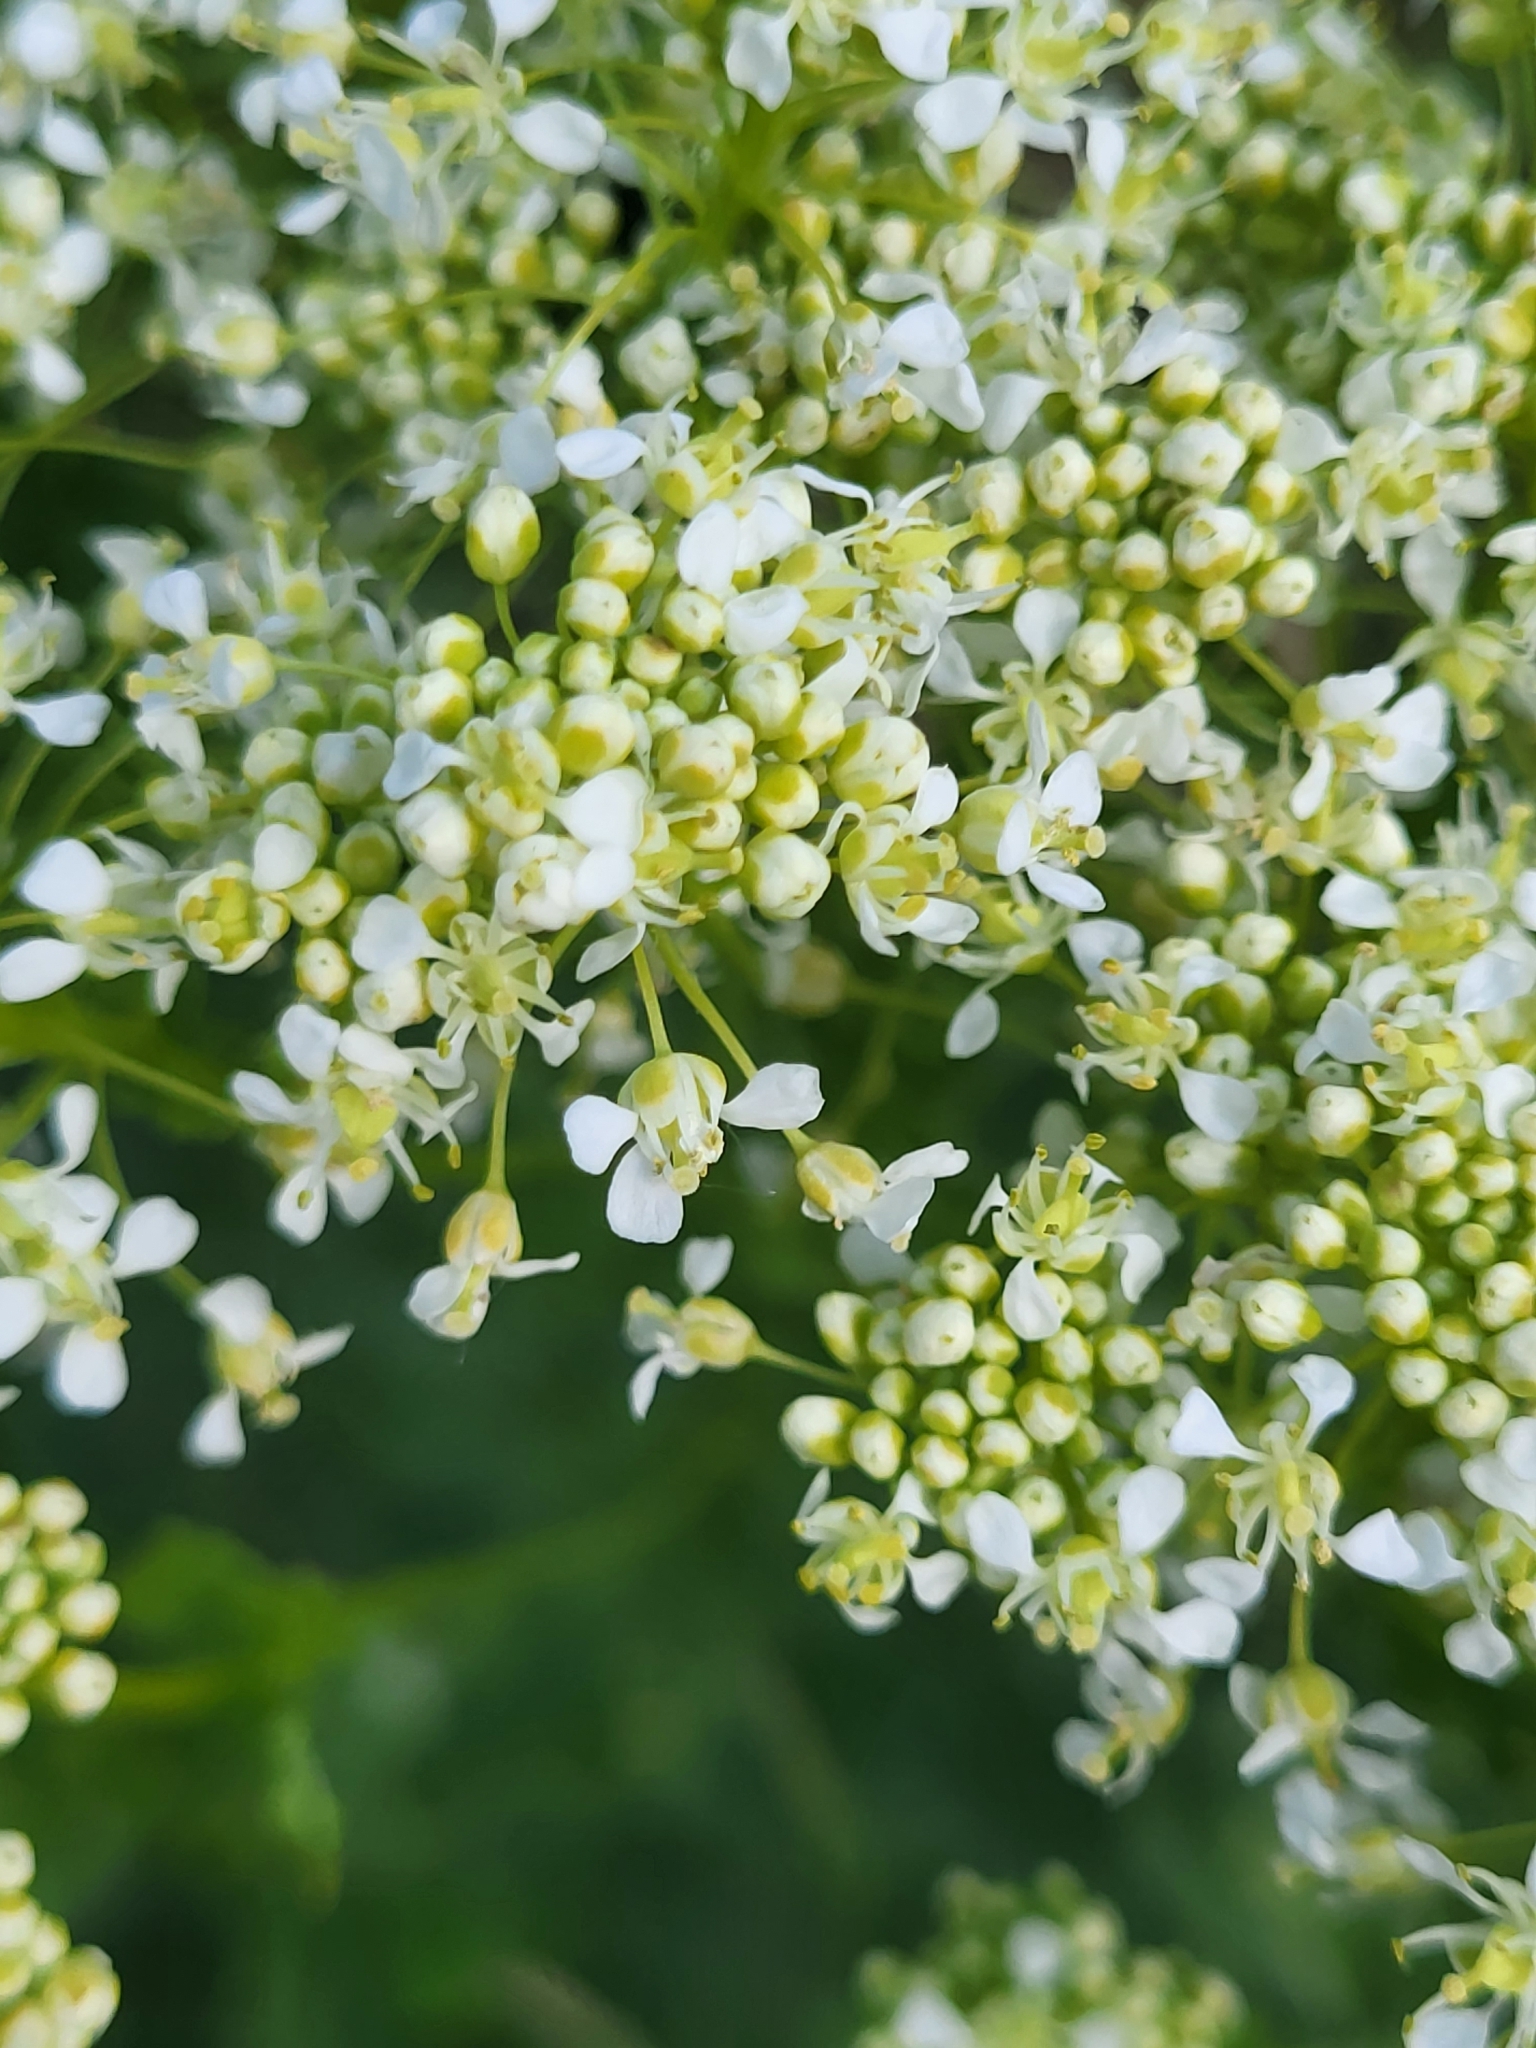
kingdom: Plantae
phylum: Tracheophyta
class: Magnoliopsida
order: Brassicales
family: Brassicaceae
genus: Lepidium
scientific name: Lepidium draba
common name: Hoary cress
